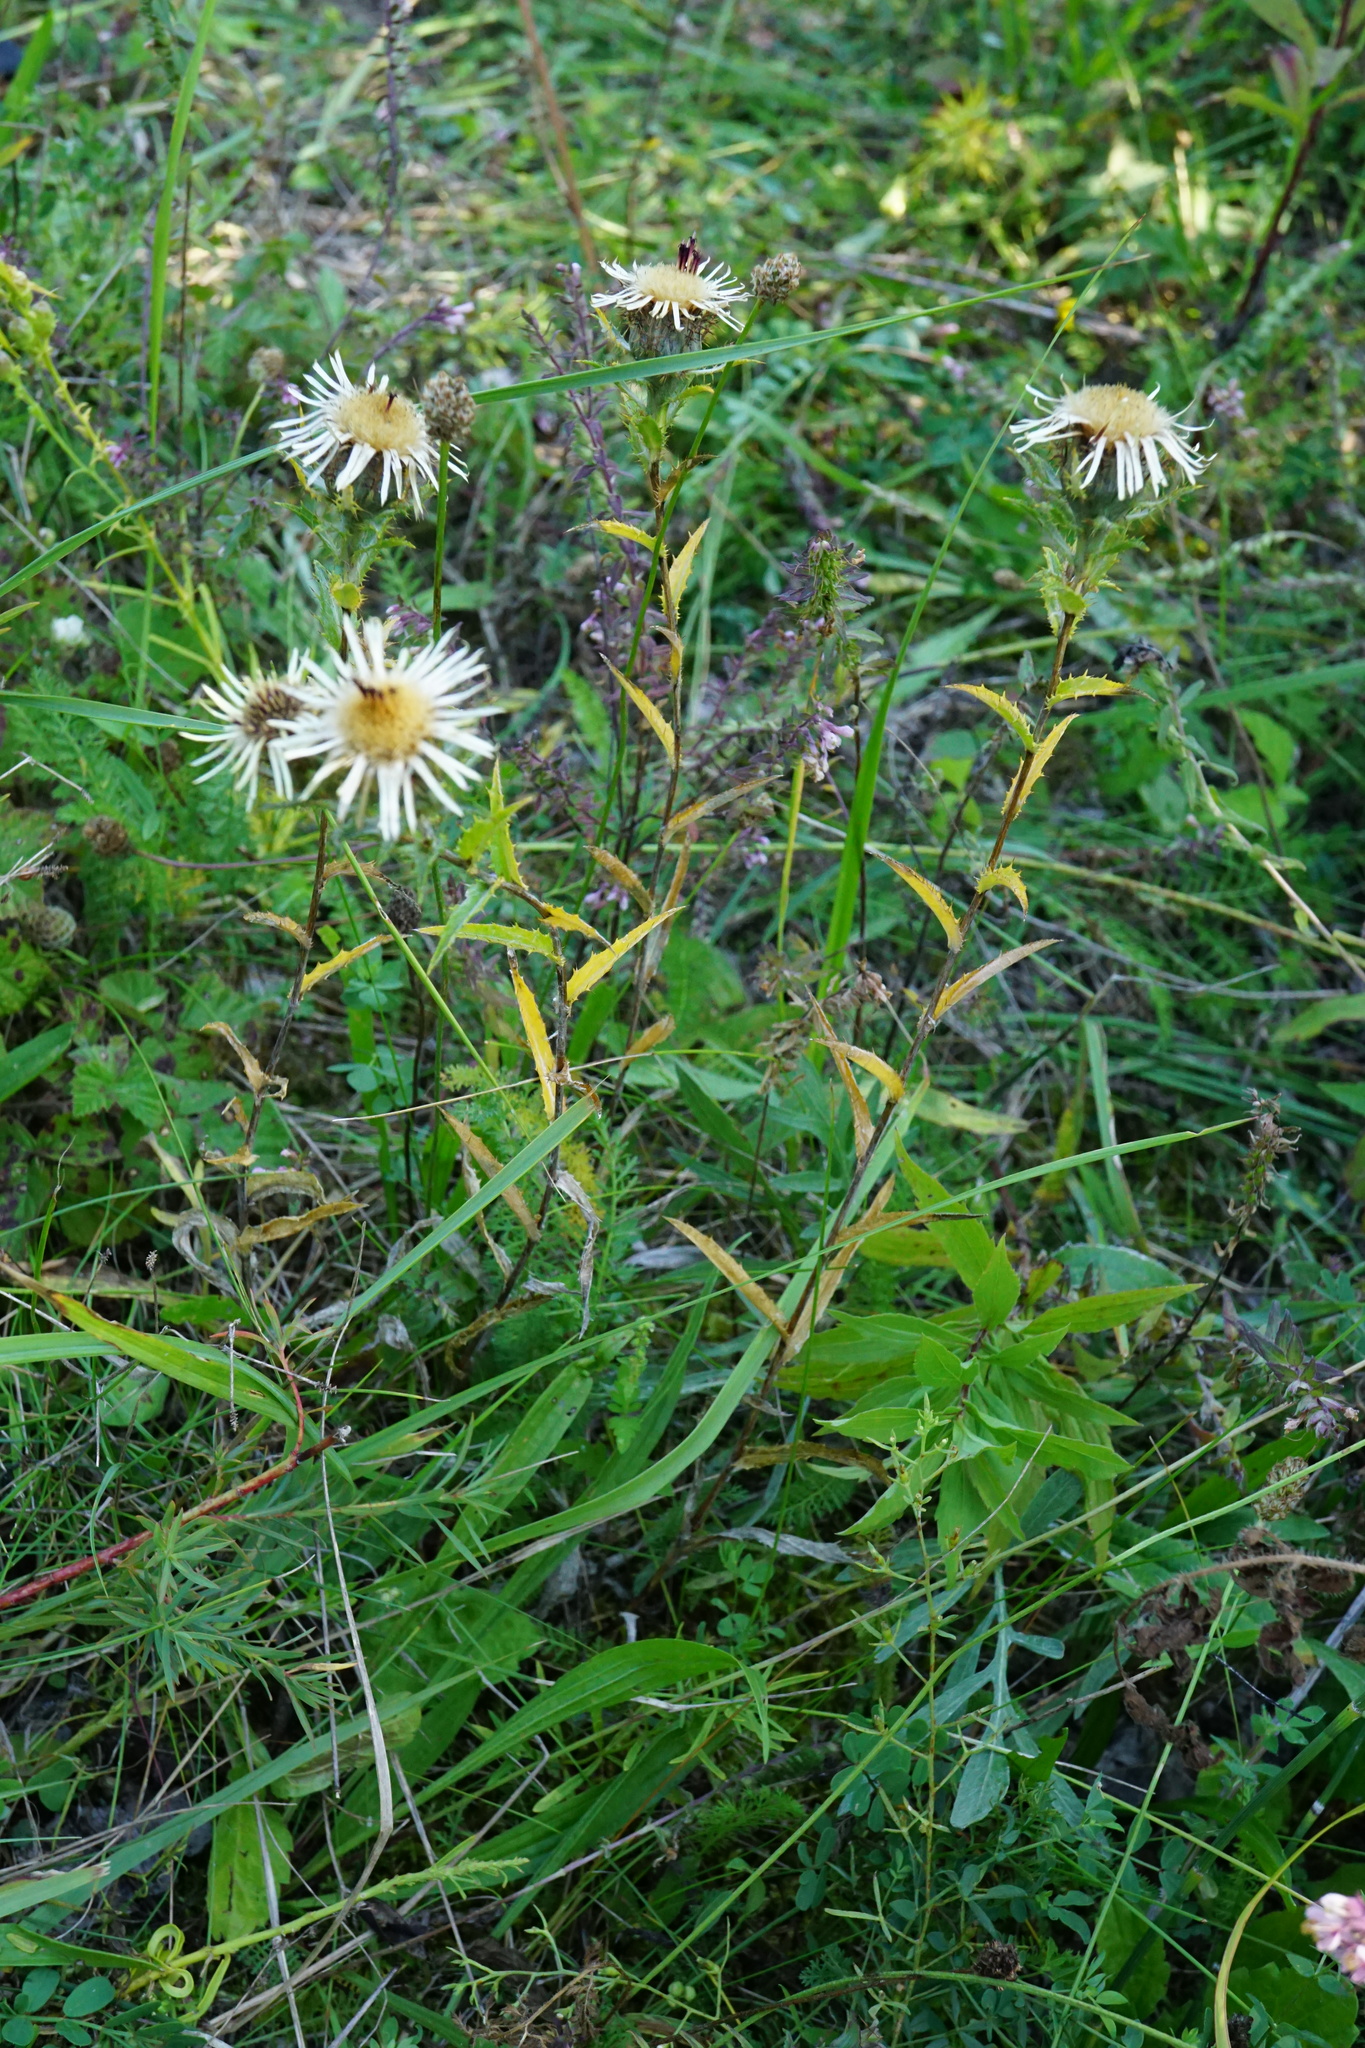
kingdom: Plantae
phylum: Tracheophyta
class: Magnoliopsida
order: Asterales
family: Asteraceae
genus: Carlina
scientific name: Carlina biebersteinii
